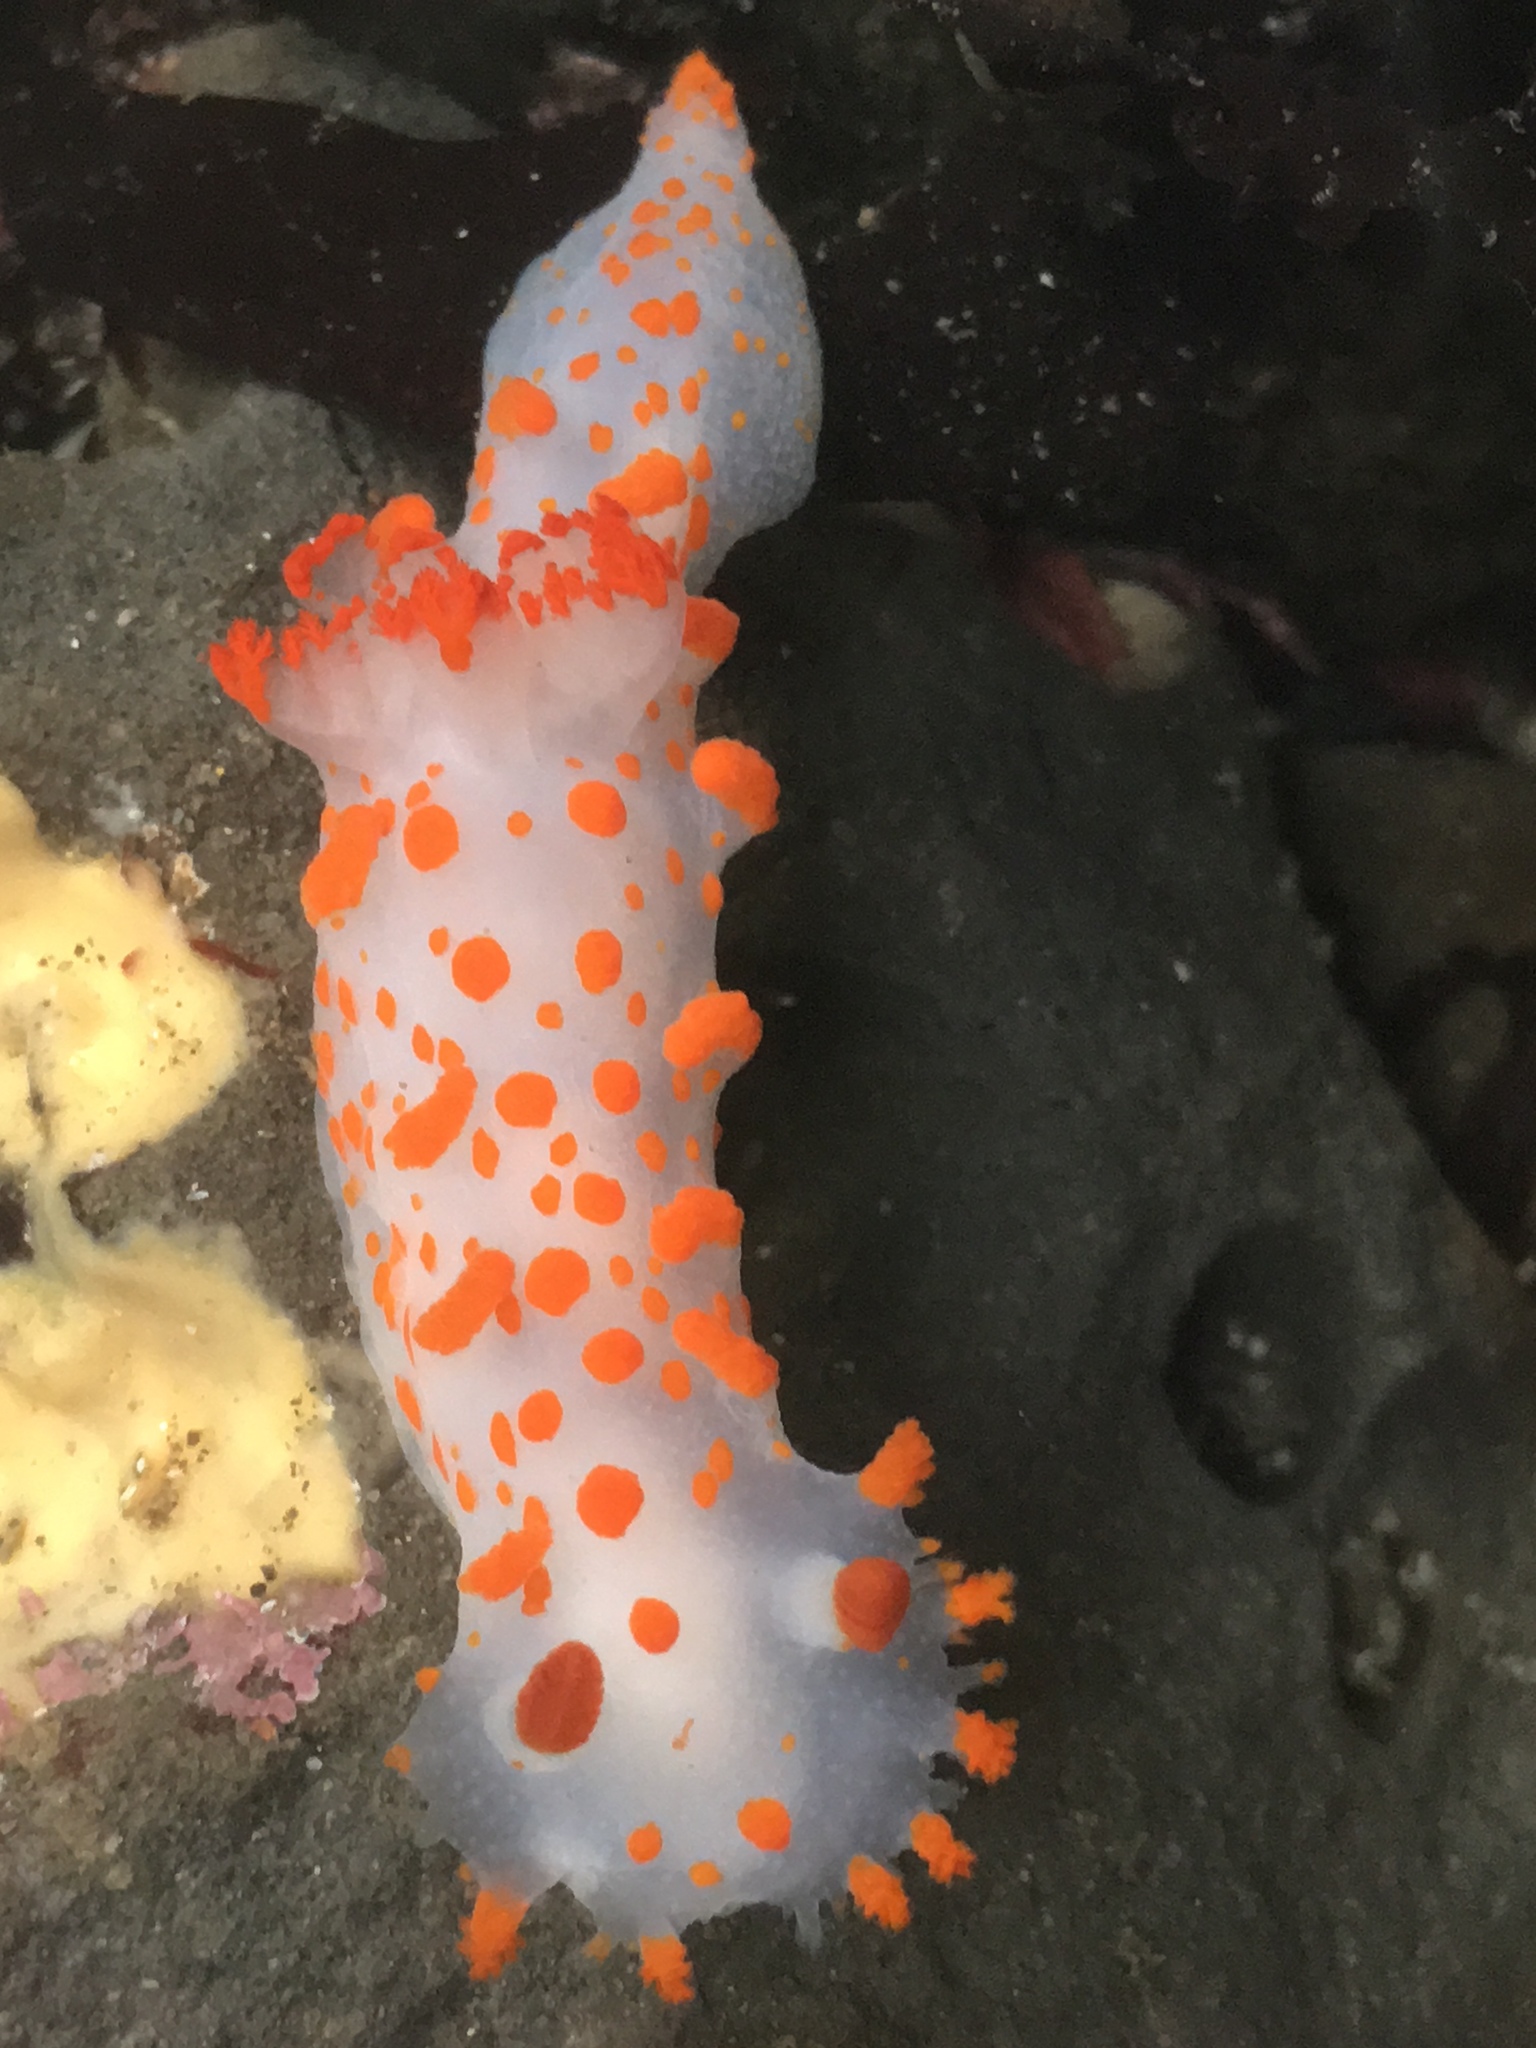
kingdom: Animalia
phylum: Mollusca
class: Gastropoda
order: Nudibranchia
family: Polyceridae
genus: Triopha
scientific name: Triopha catalinae
